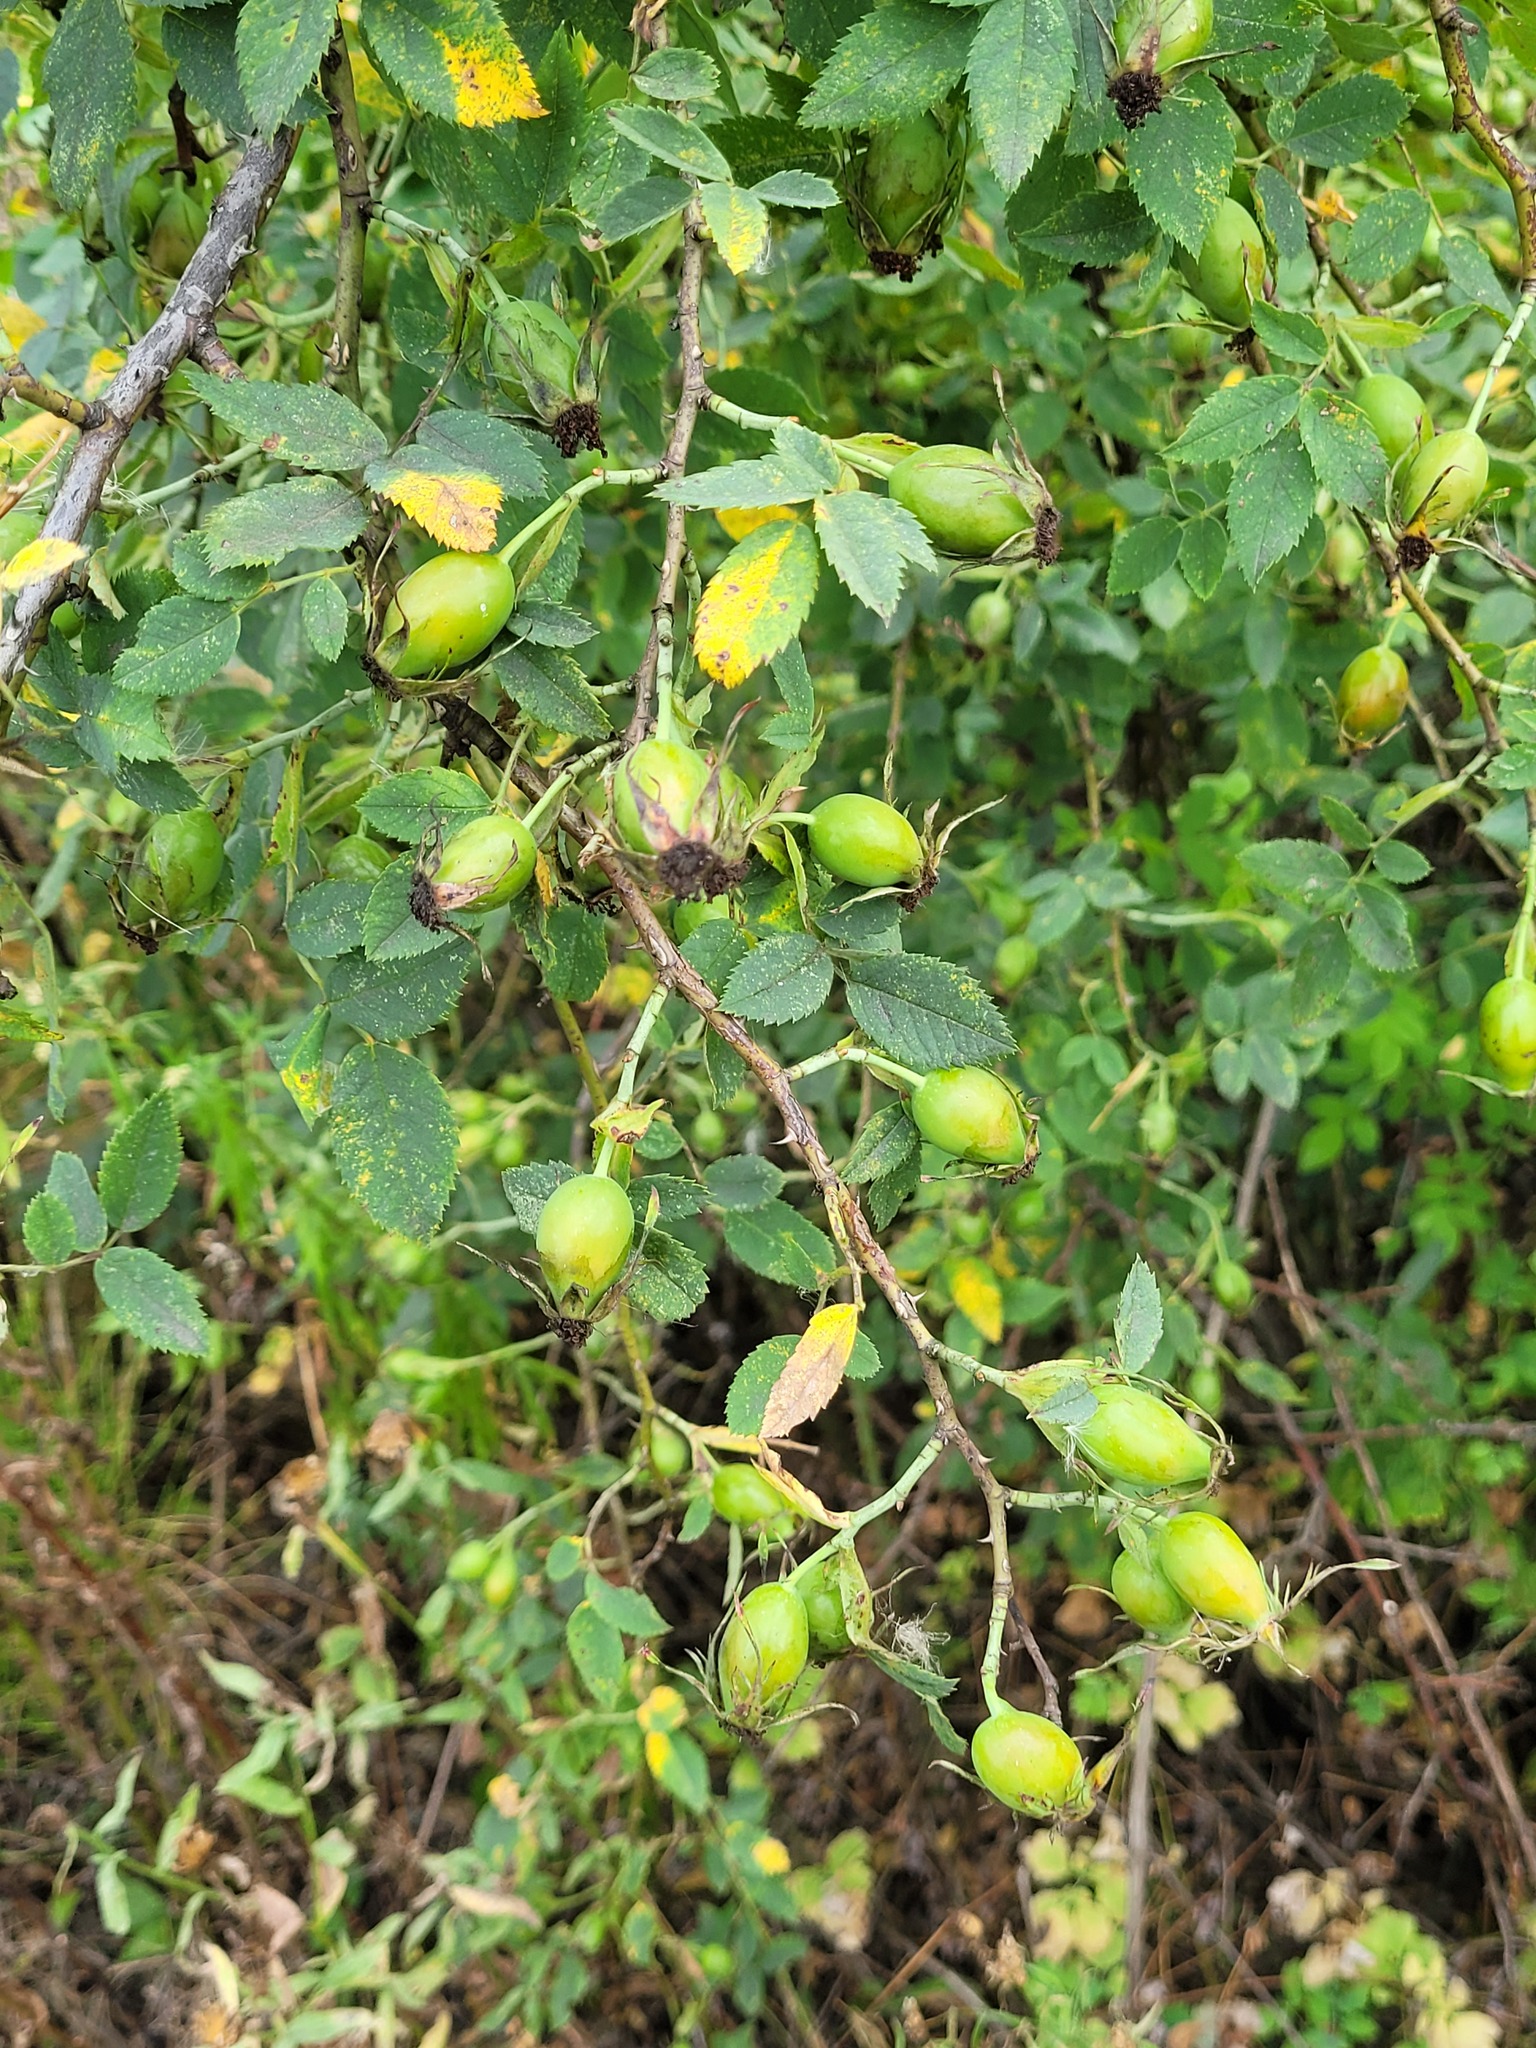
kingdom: Plantae
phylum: Tracheophyta
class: Magnoliopsida
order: Rosales
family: Rosaceae
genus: Rosa
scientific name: Rosa corymbifera
